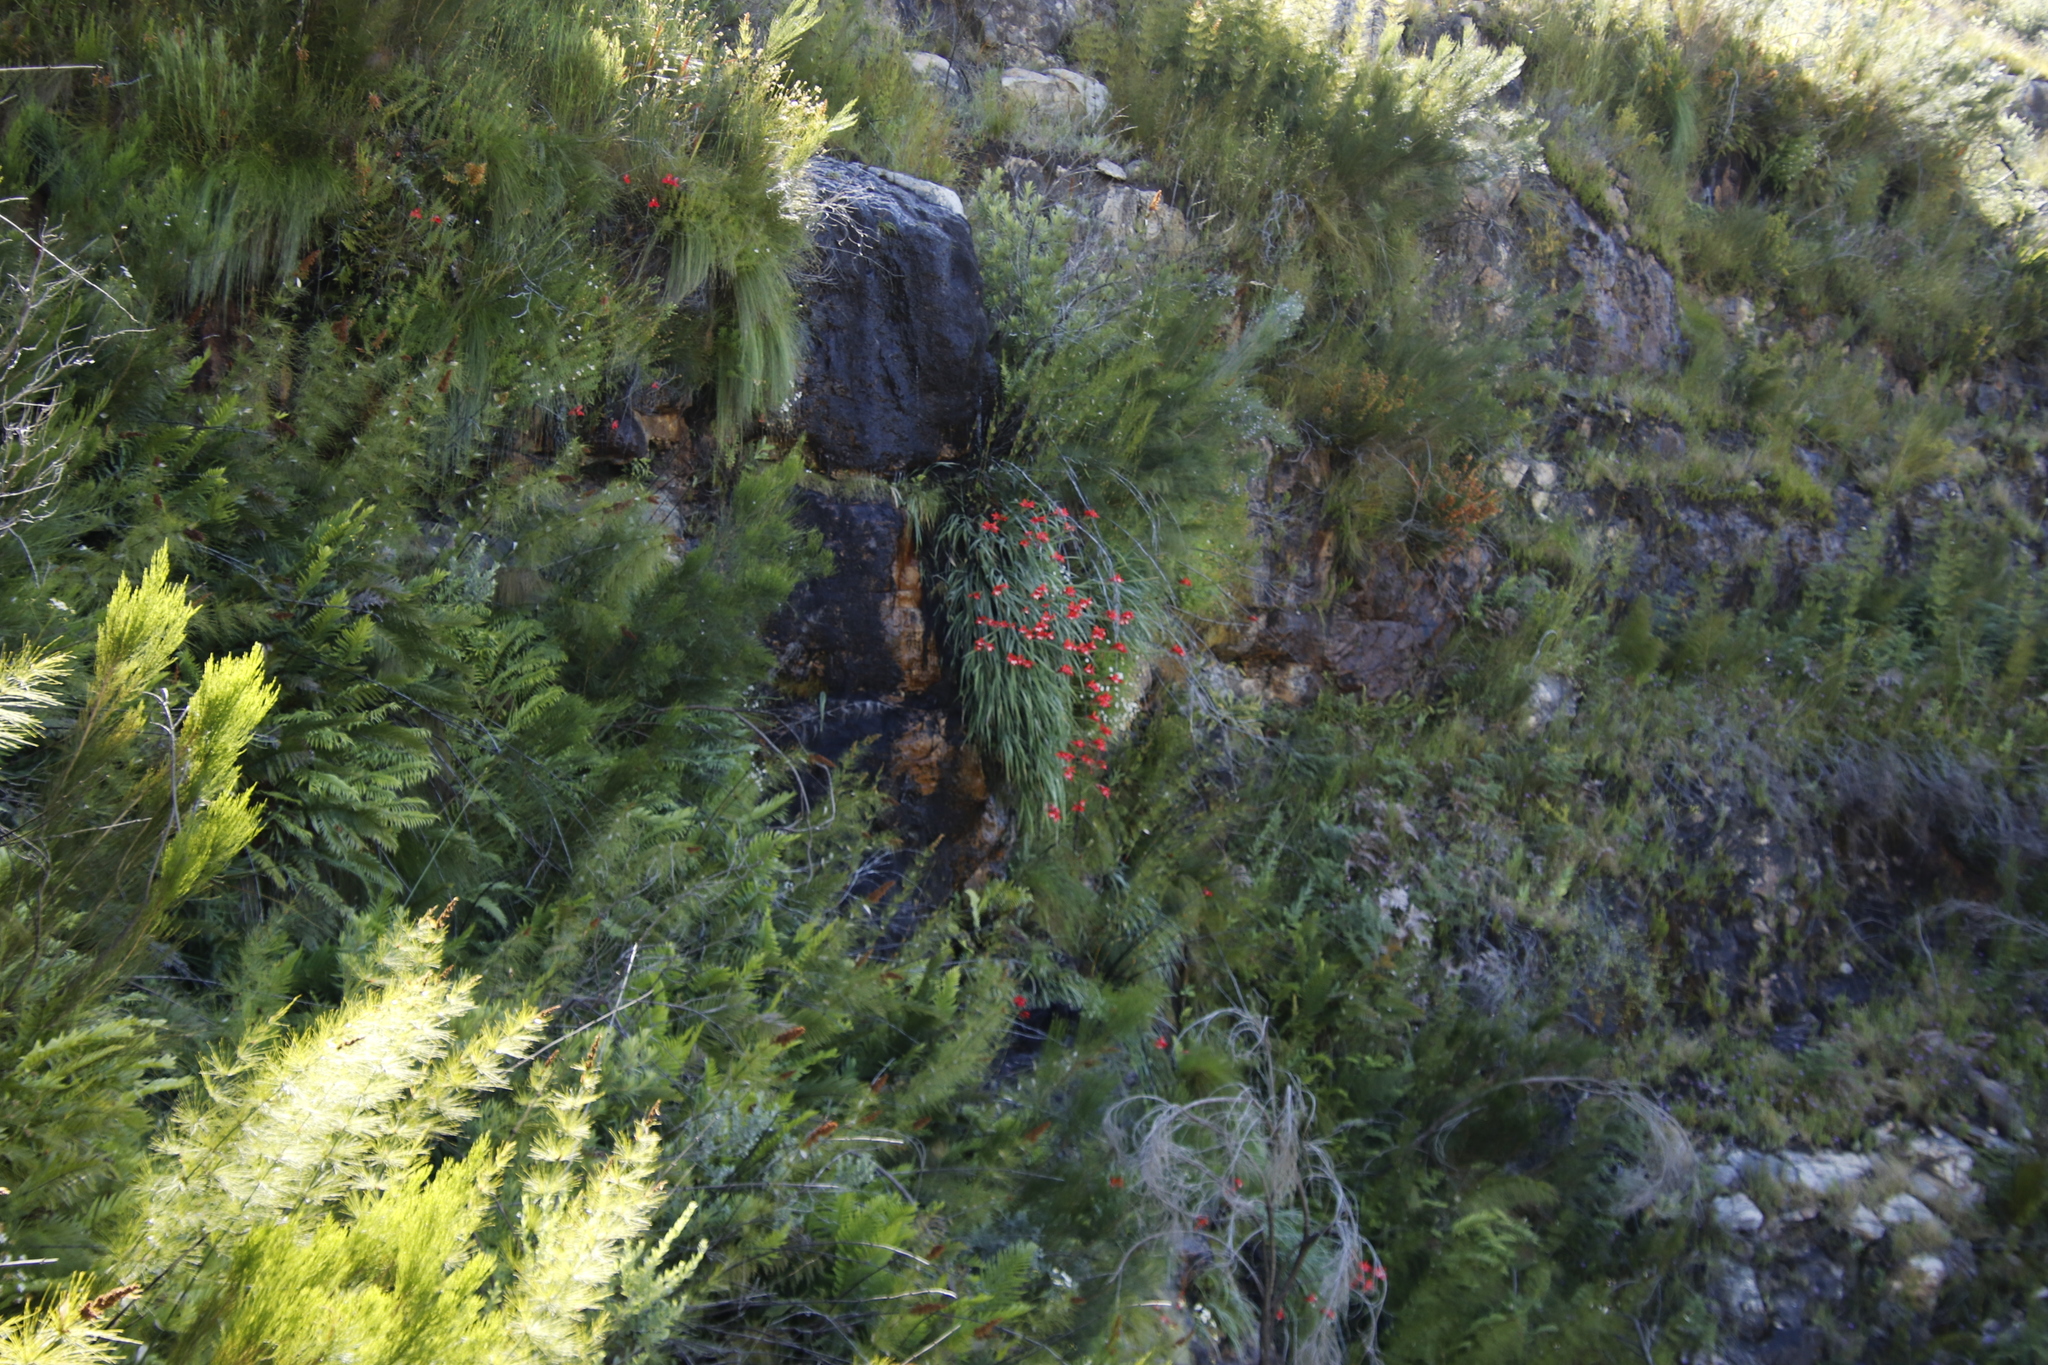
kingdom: Plantae
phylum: Tracheophyta
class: Liliopsida
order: Asparagales
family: Iridaceae
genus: Gladiolus
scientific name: Gladiolus cardinalis
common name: New year-lily
